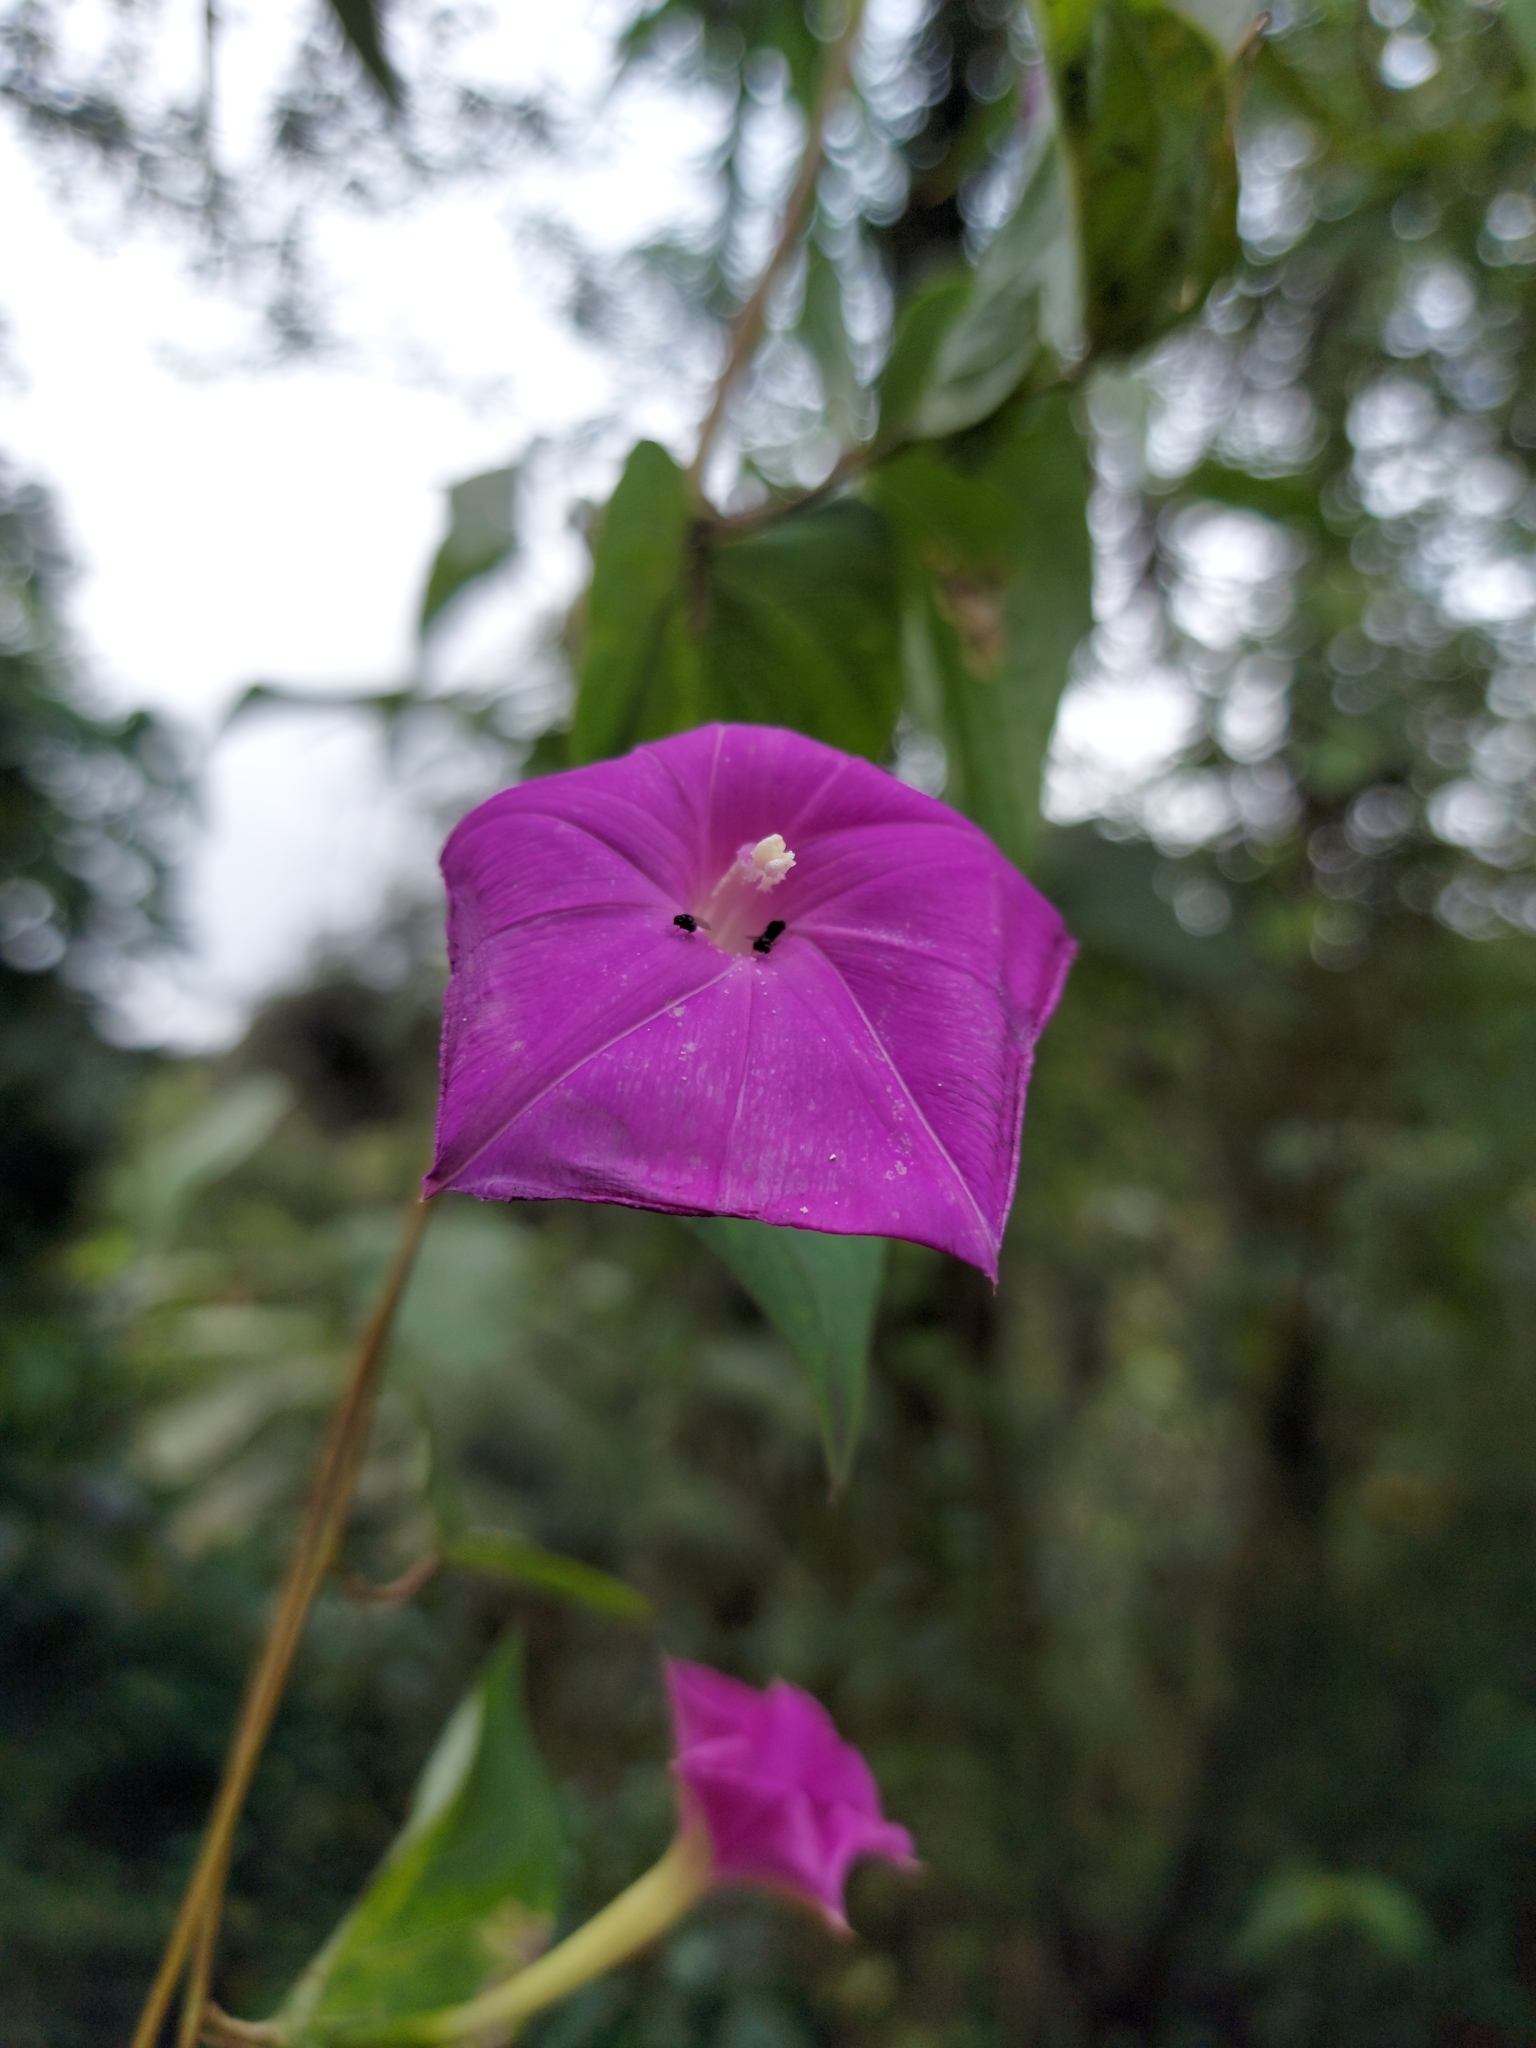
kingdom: Plantae
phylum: Tracheophyta
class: Magnoliopsida
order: Solanales
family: Convolvulaceae
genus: Ipomoea
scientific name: Ipomoea dumosa
